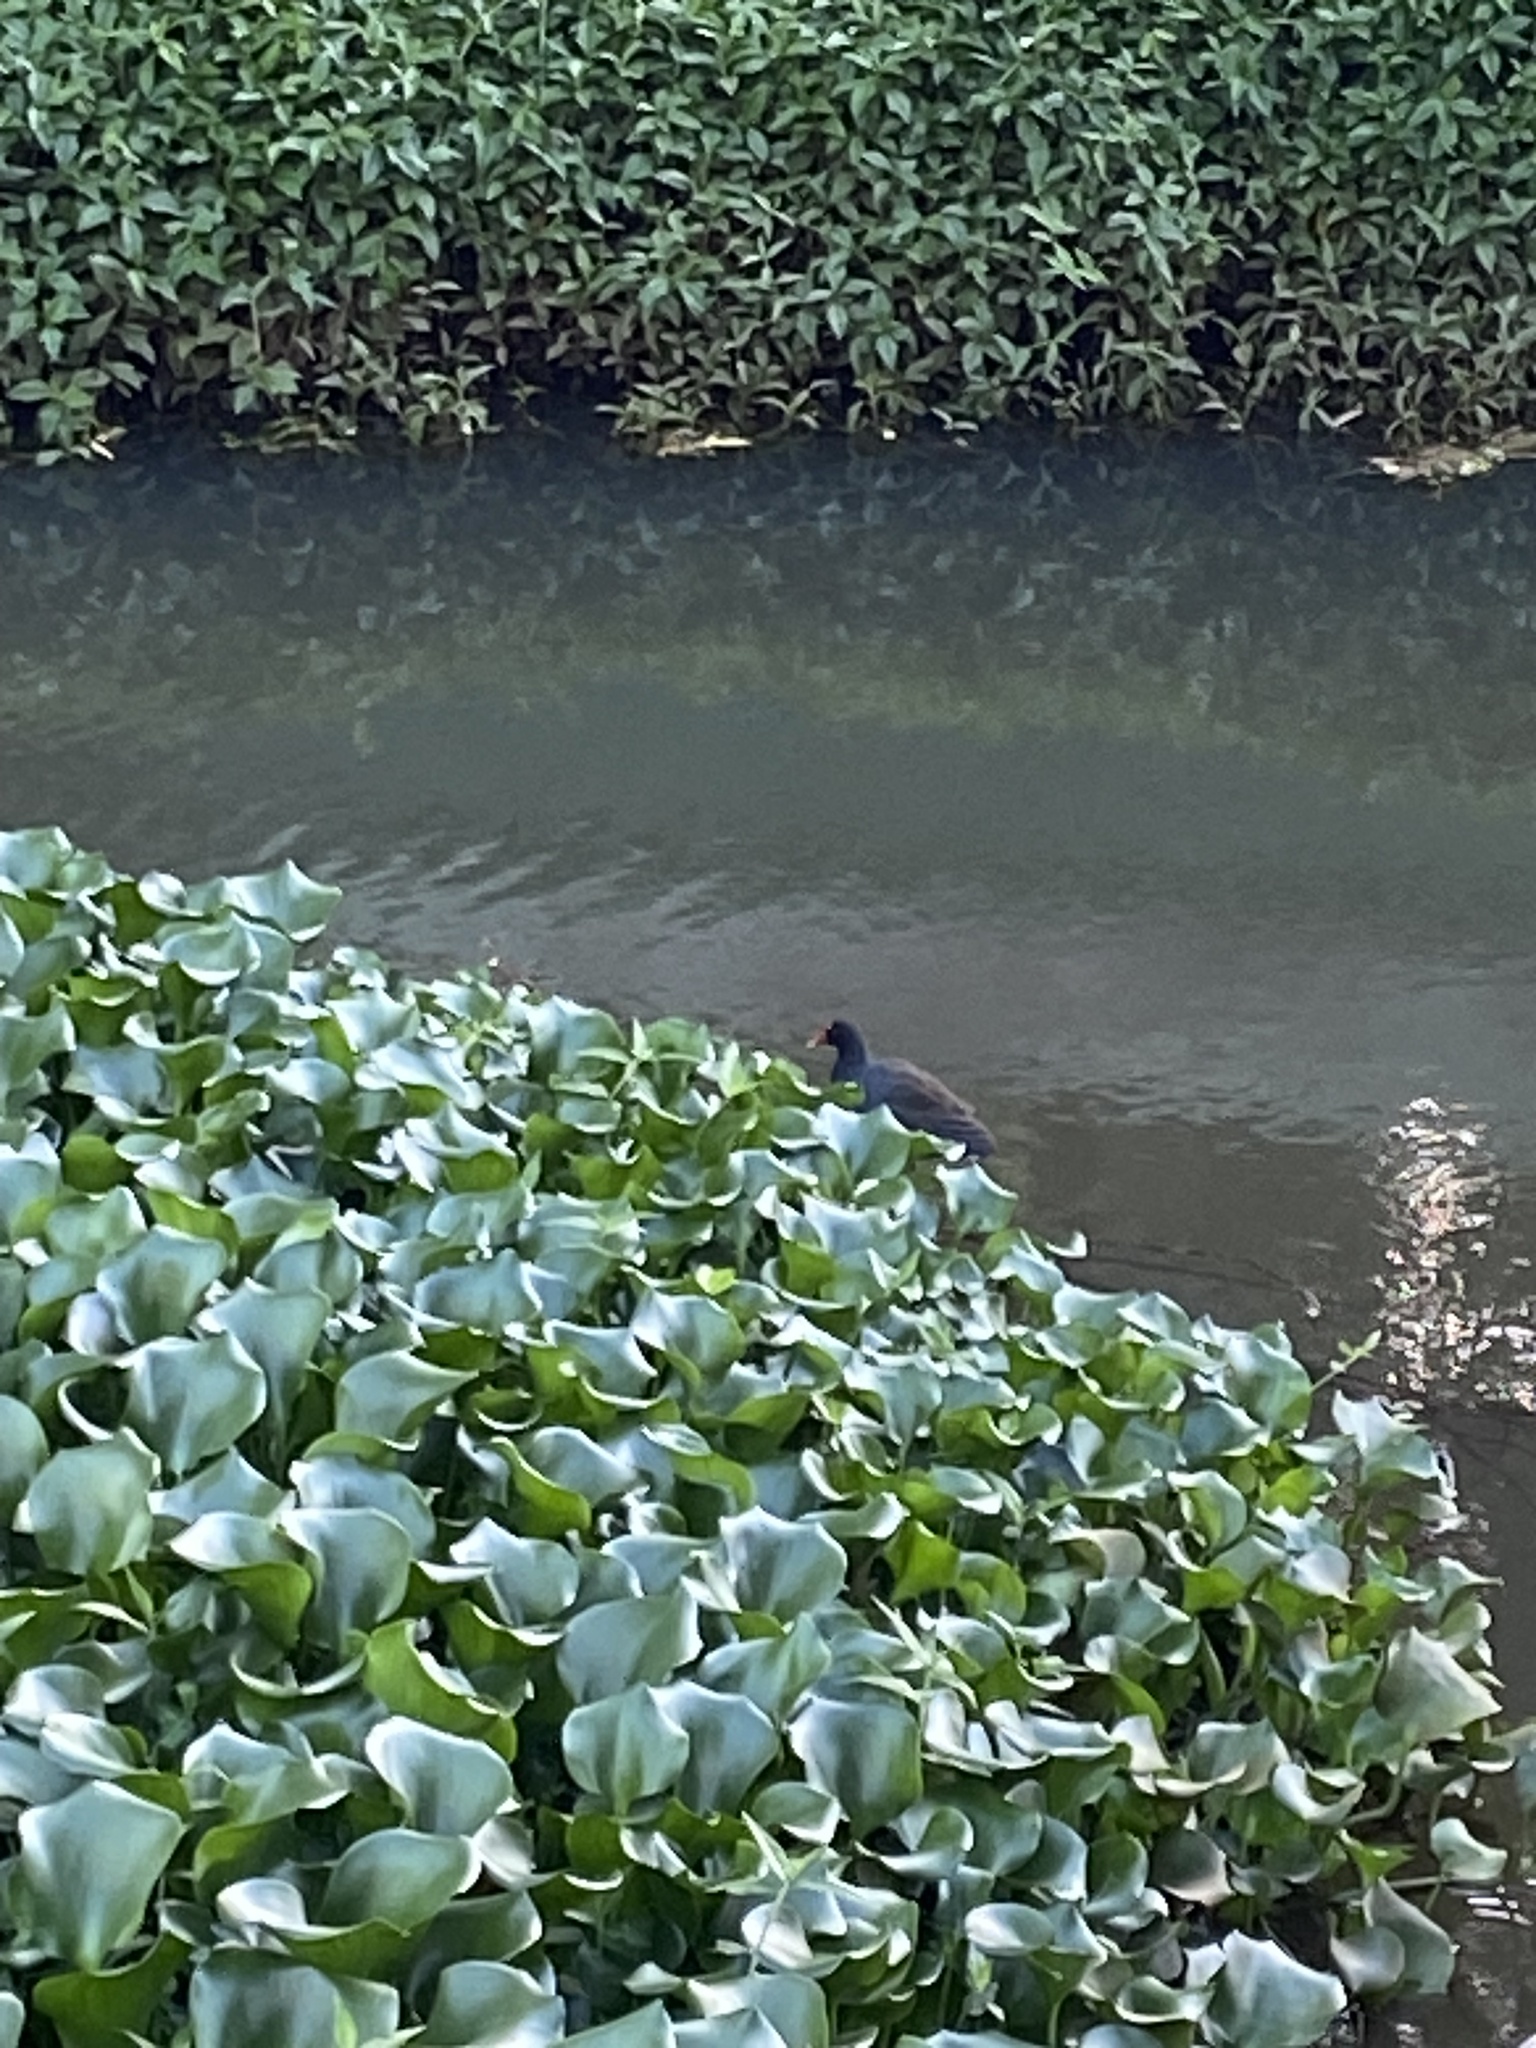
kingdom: Animalia
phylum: Chordata
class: Aves
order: Gruiformes
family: Rallidae
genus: Gallinula
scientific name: Gallinula chloropus
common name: Common moorhen
